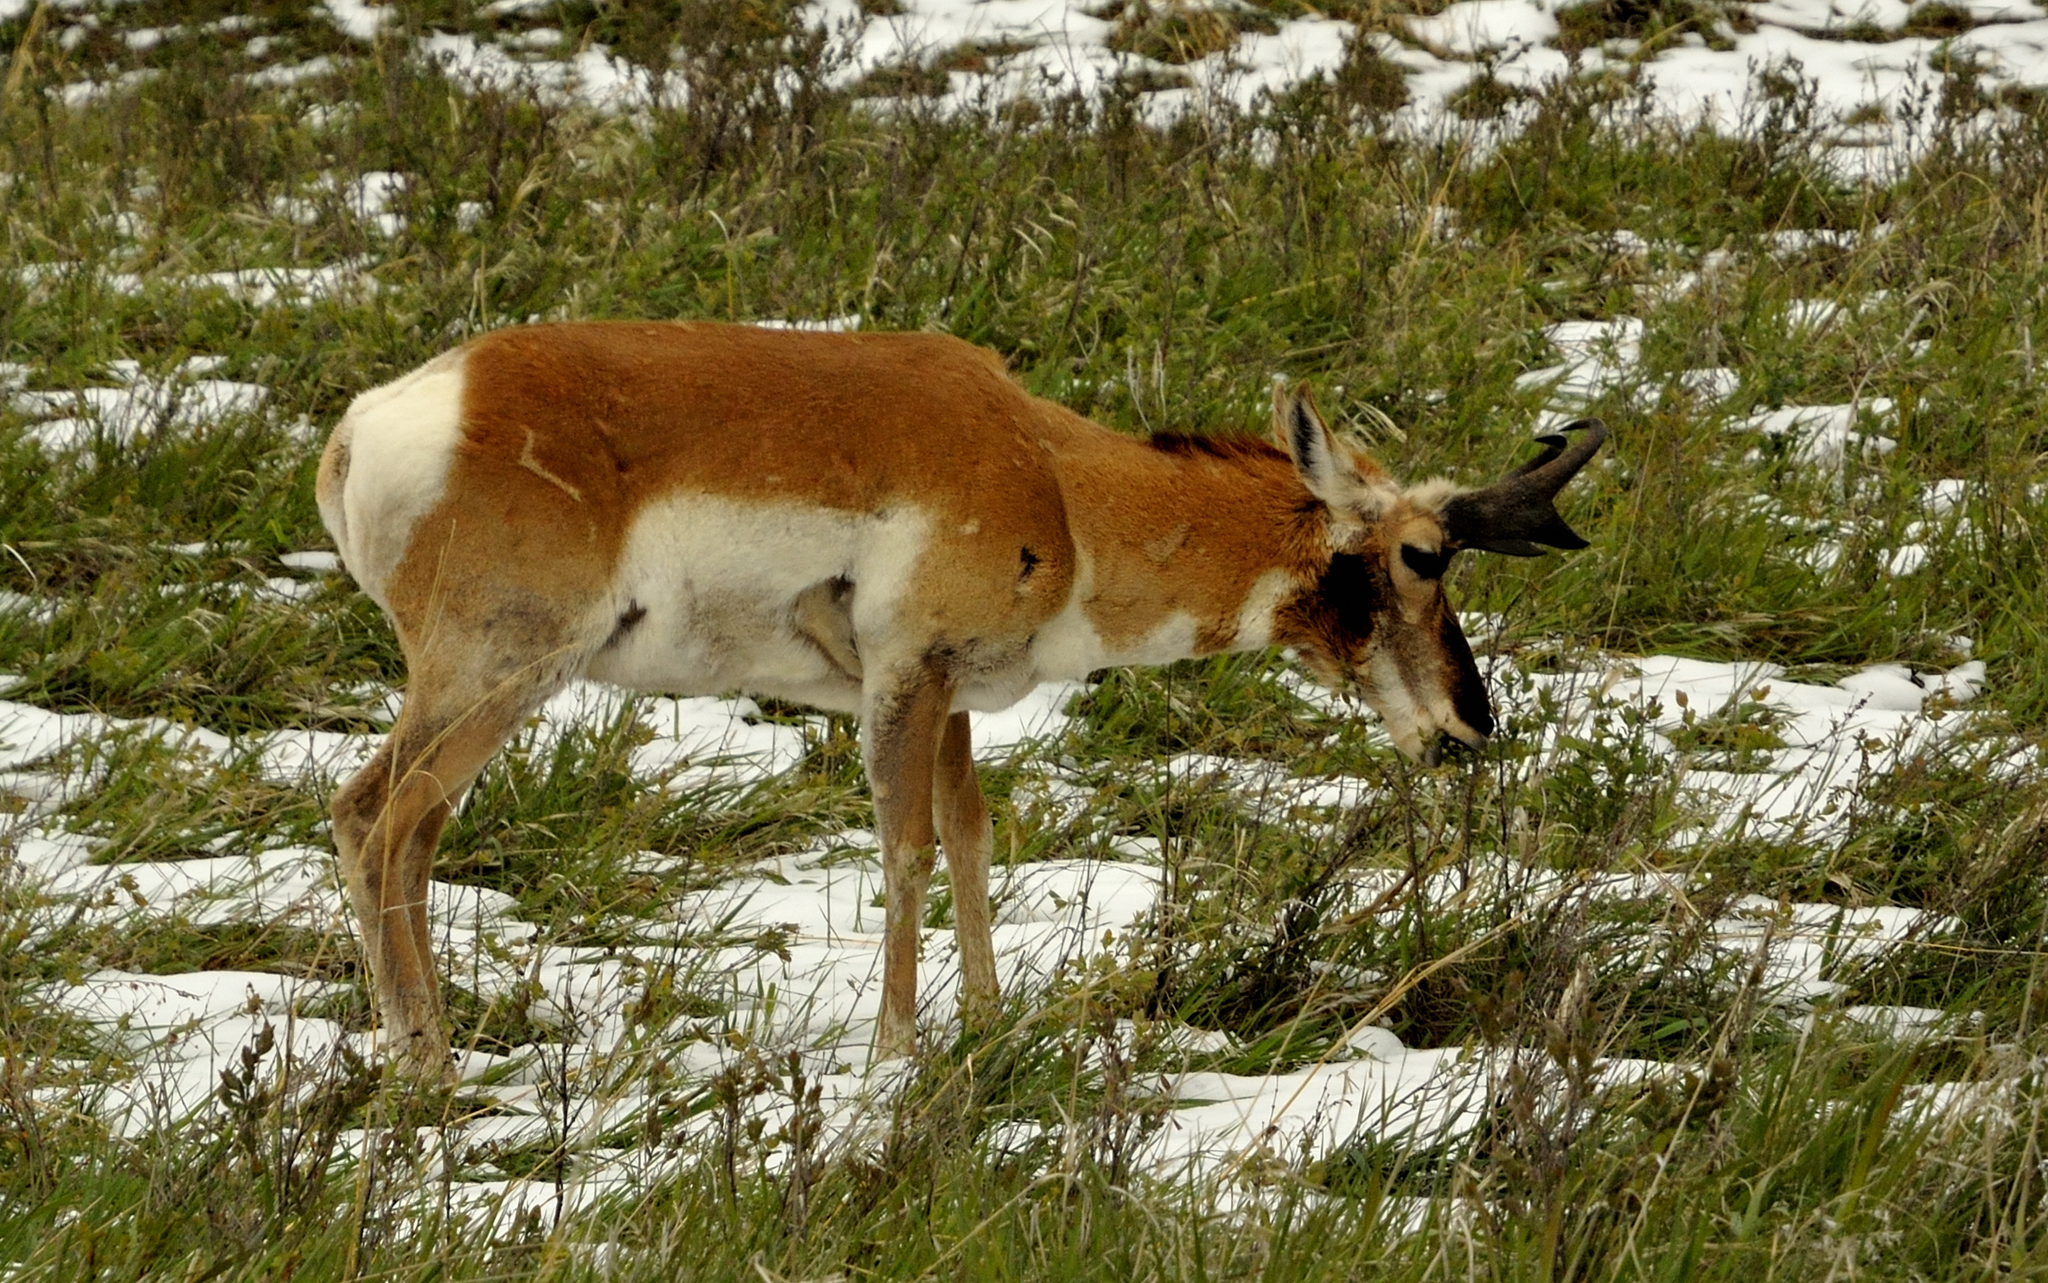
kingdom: Animalia
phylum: Chordata
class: Mammalia
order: Artiodactyla
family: Antilocapridae
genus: Antilocapra
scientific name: Antilocapra americana
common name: Pronghorn
